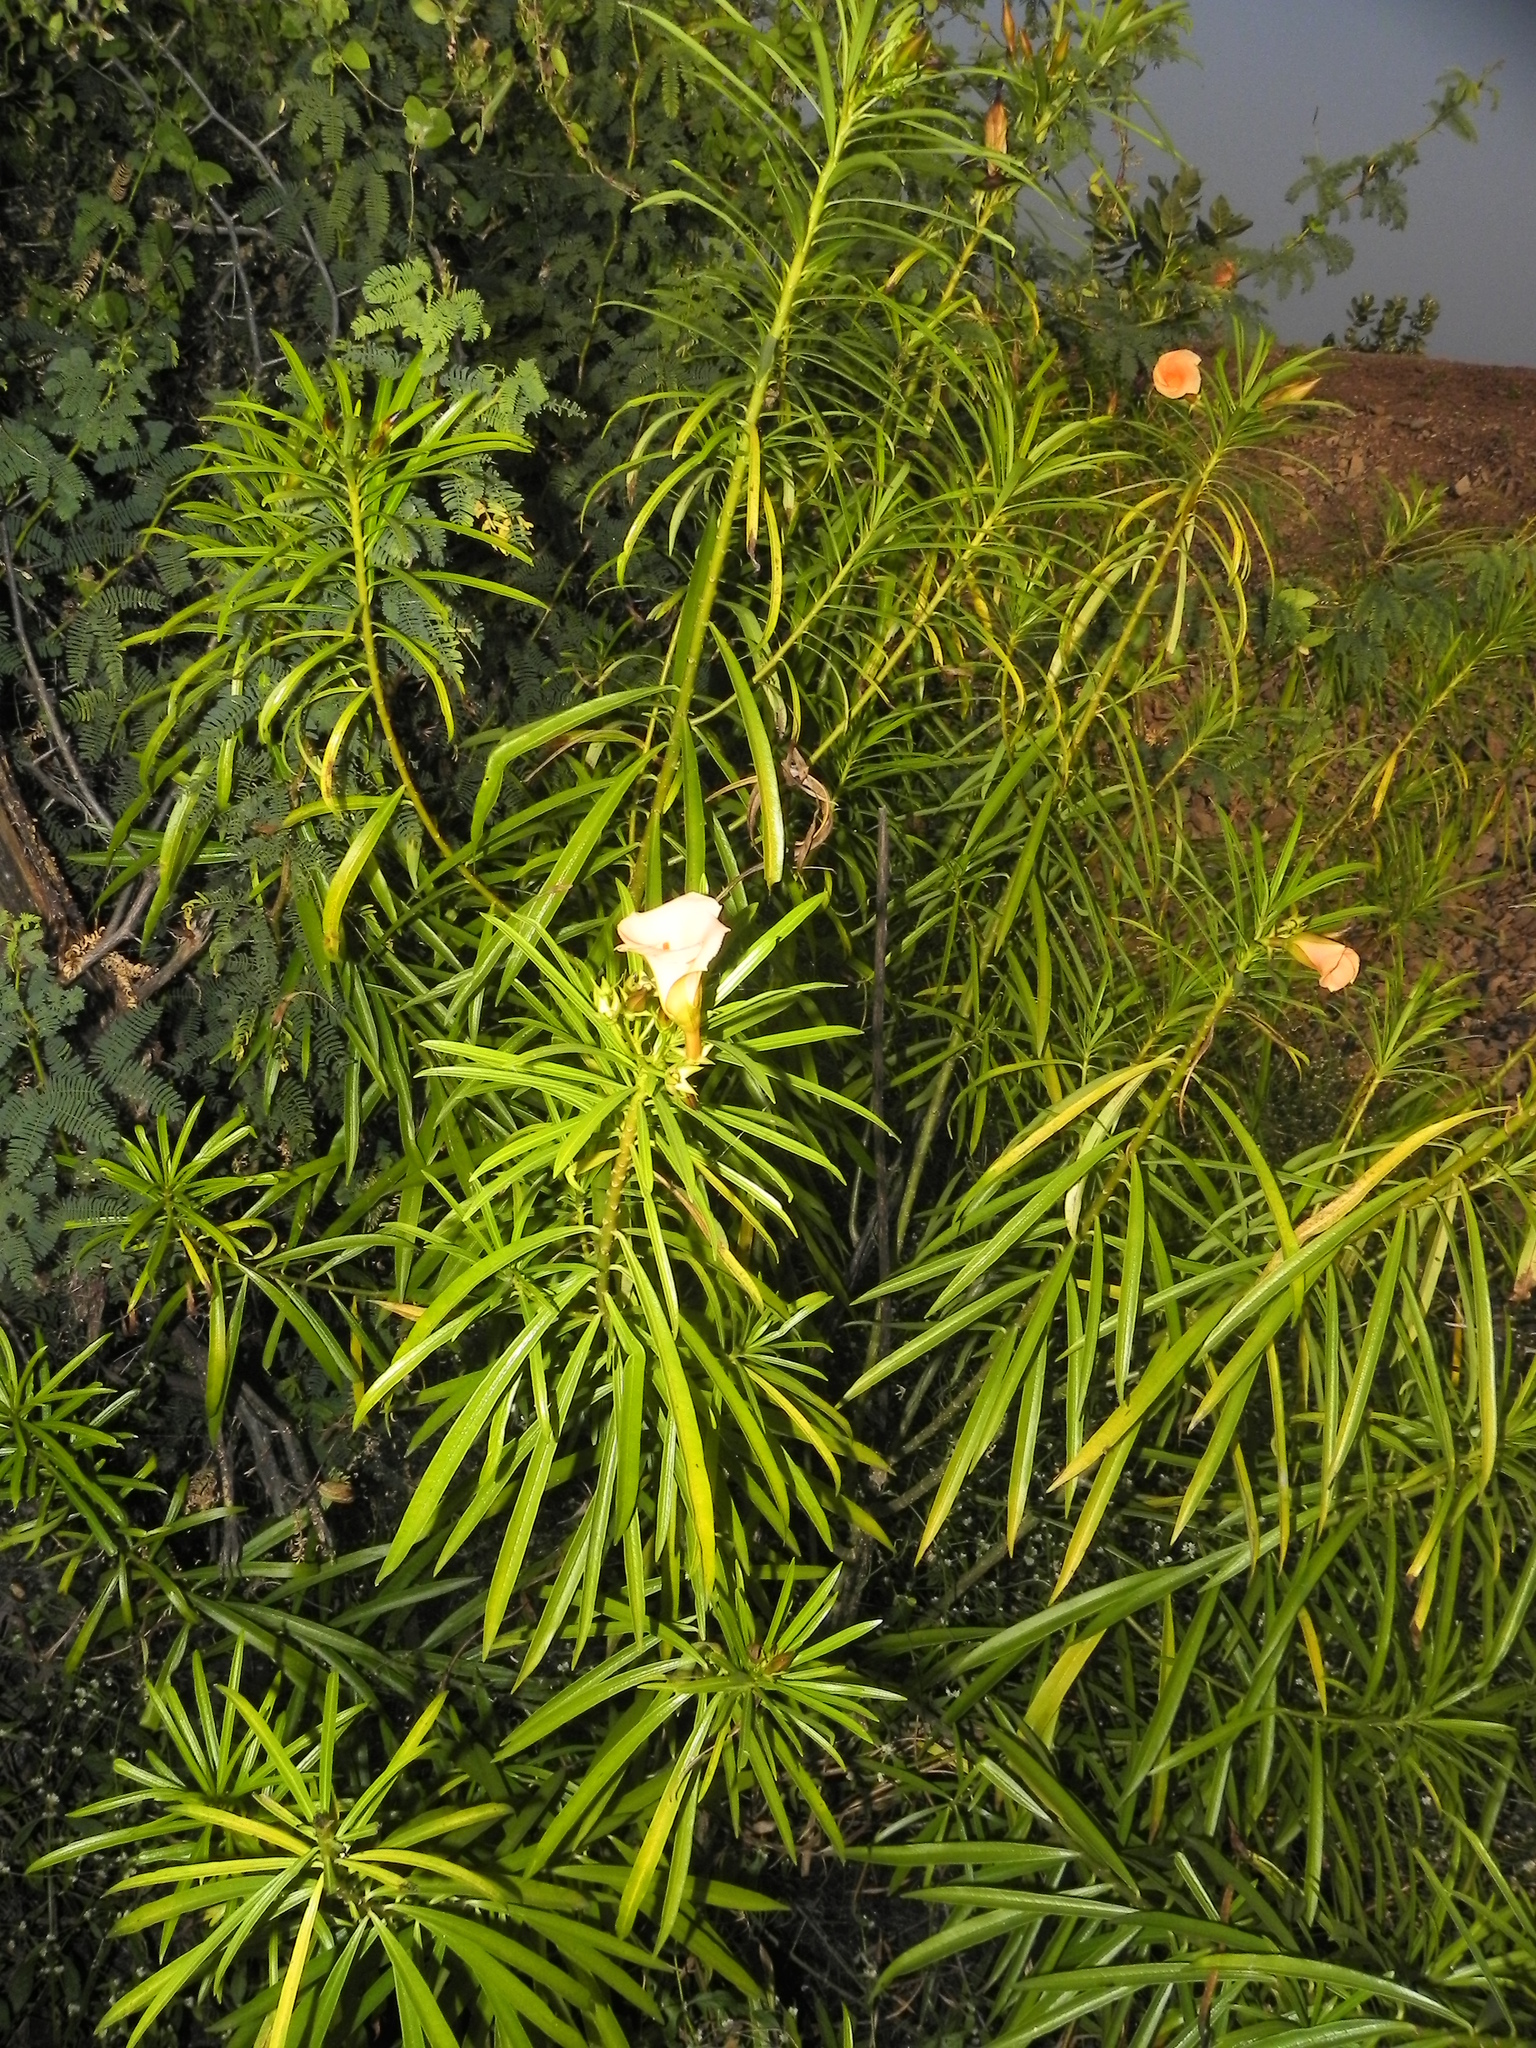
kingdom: Plantae
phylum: Tracheophyta
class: Magnoliopsida
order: Gentianales
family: Apocynaceae
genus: Cascabela
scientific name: Cascabela thevetia
